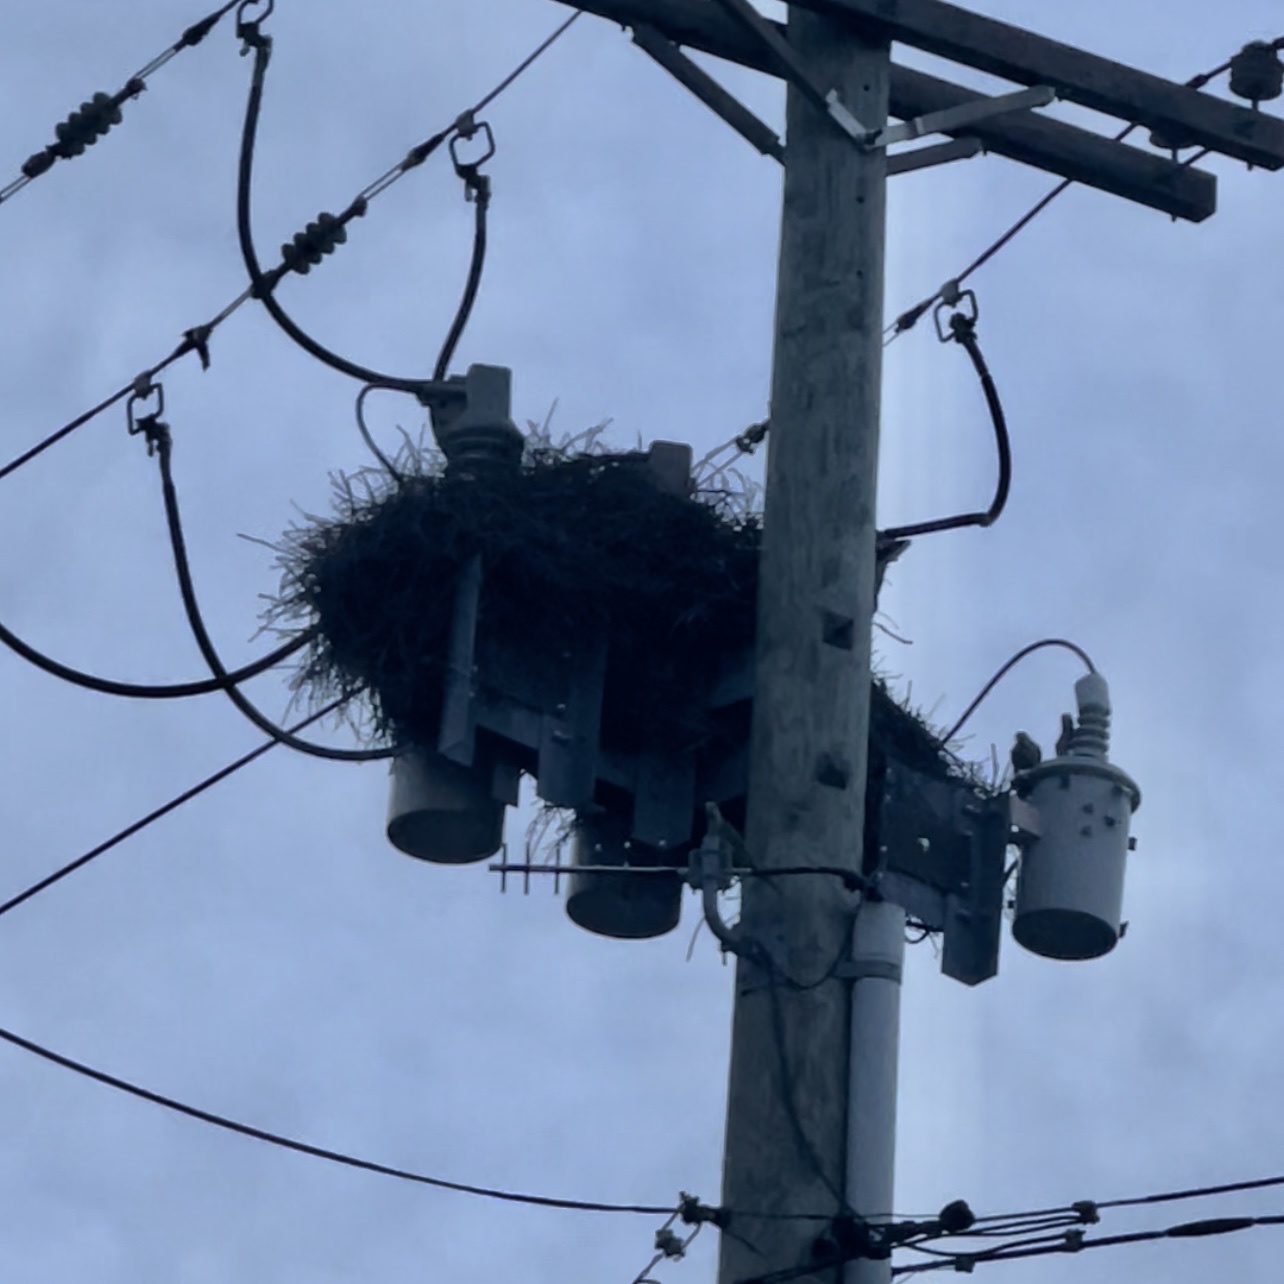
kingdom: Animalia
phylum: Chordata
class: Aves
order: Psittaciformes
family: Psittacidae
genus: Myiopsitta
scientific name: Myiopsitta monachus
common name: Monk parakeet
